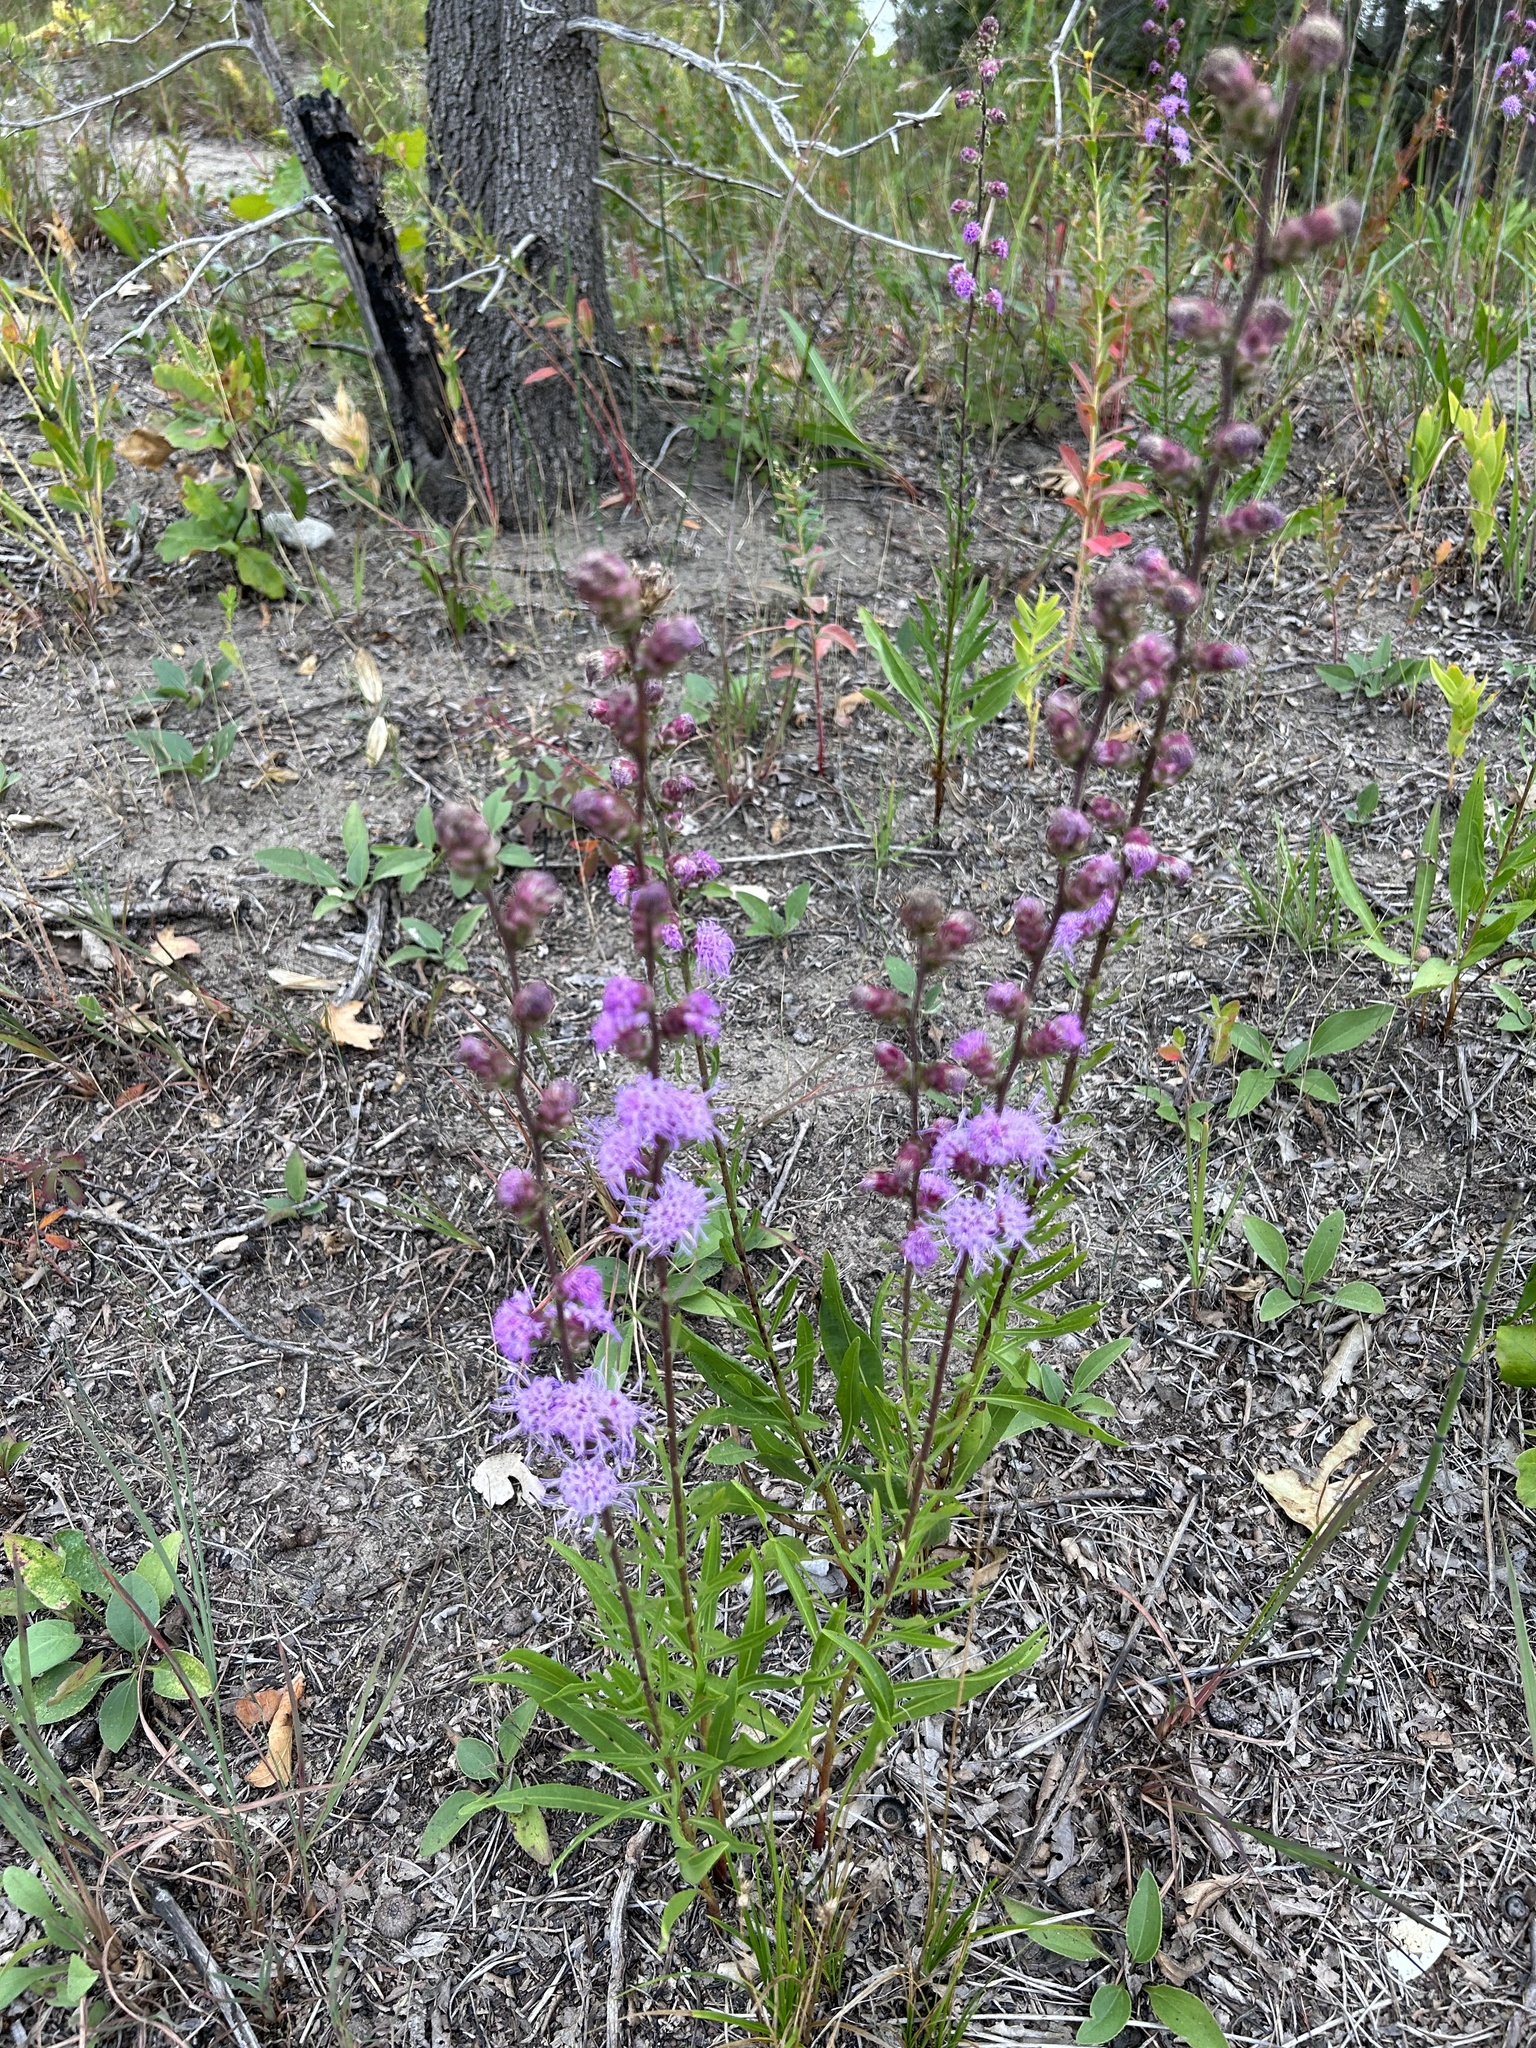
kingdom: Plantae
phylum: Tracheophyta
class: Magnoliopsida
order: Asterales
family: Asteraceae
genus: Liatris
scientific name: Liatris aspera
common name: Lacerate blazing-star
